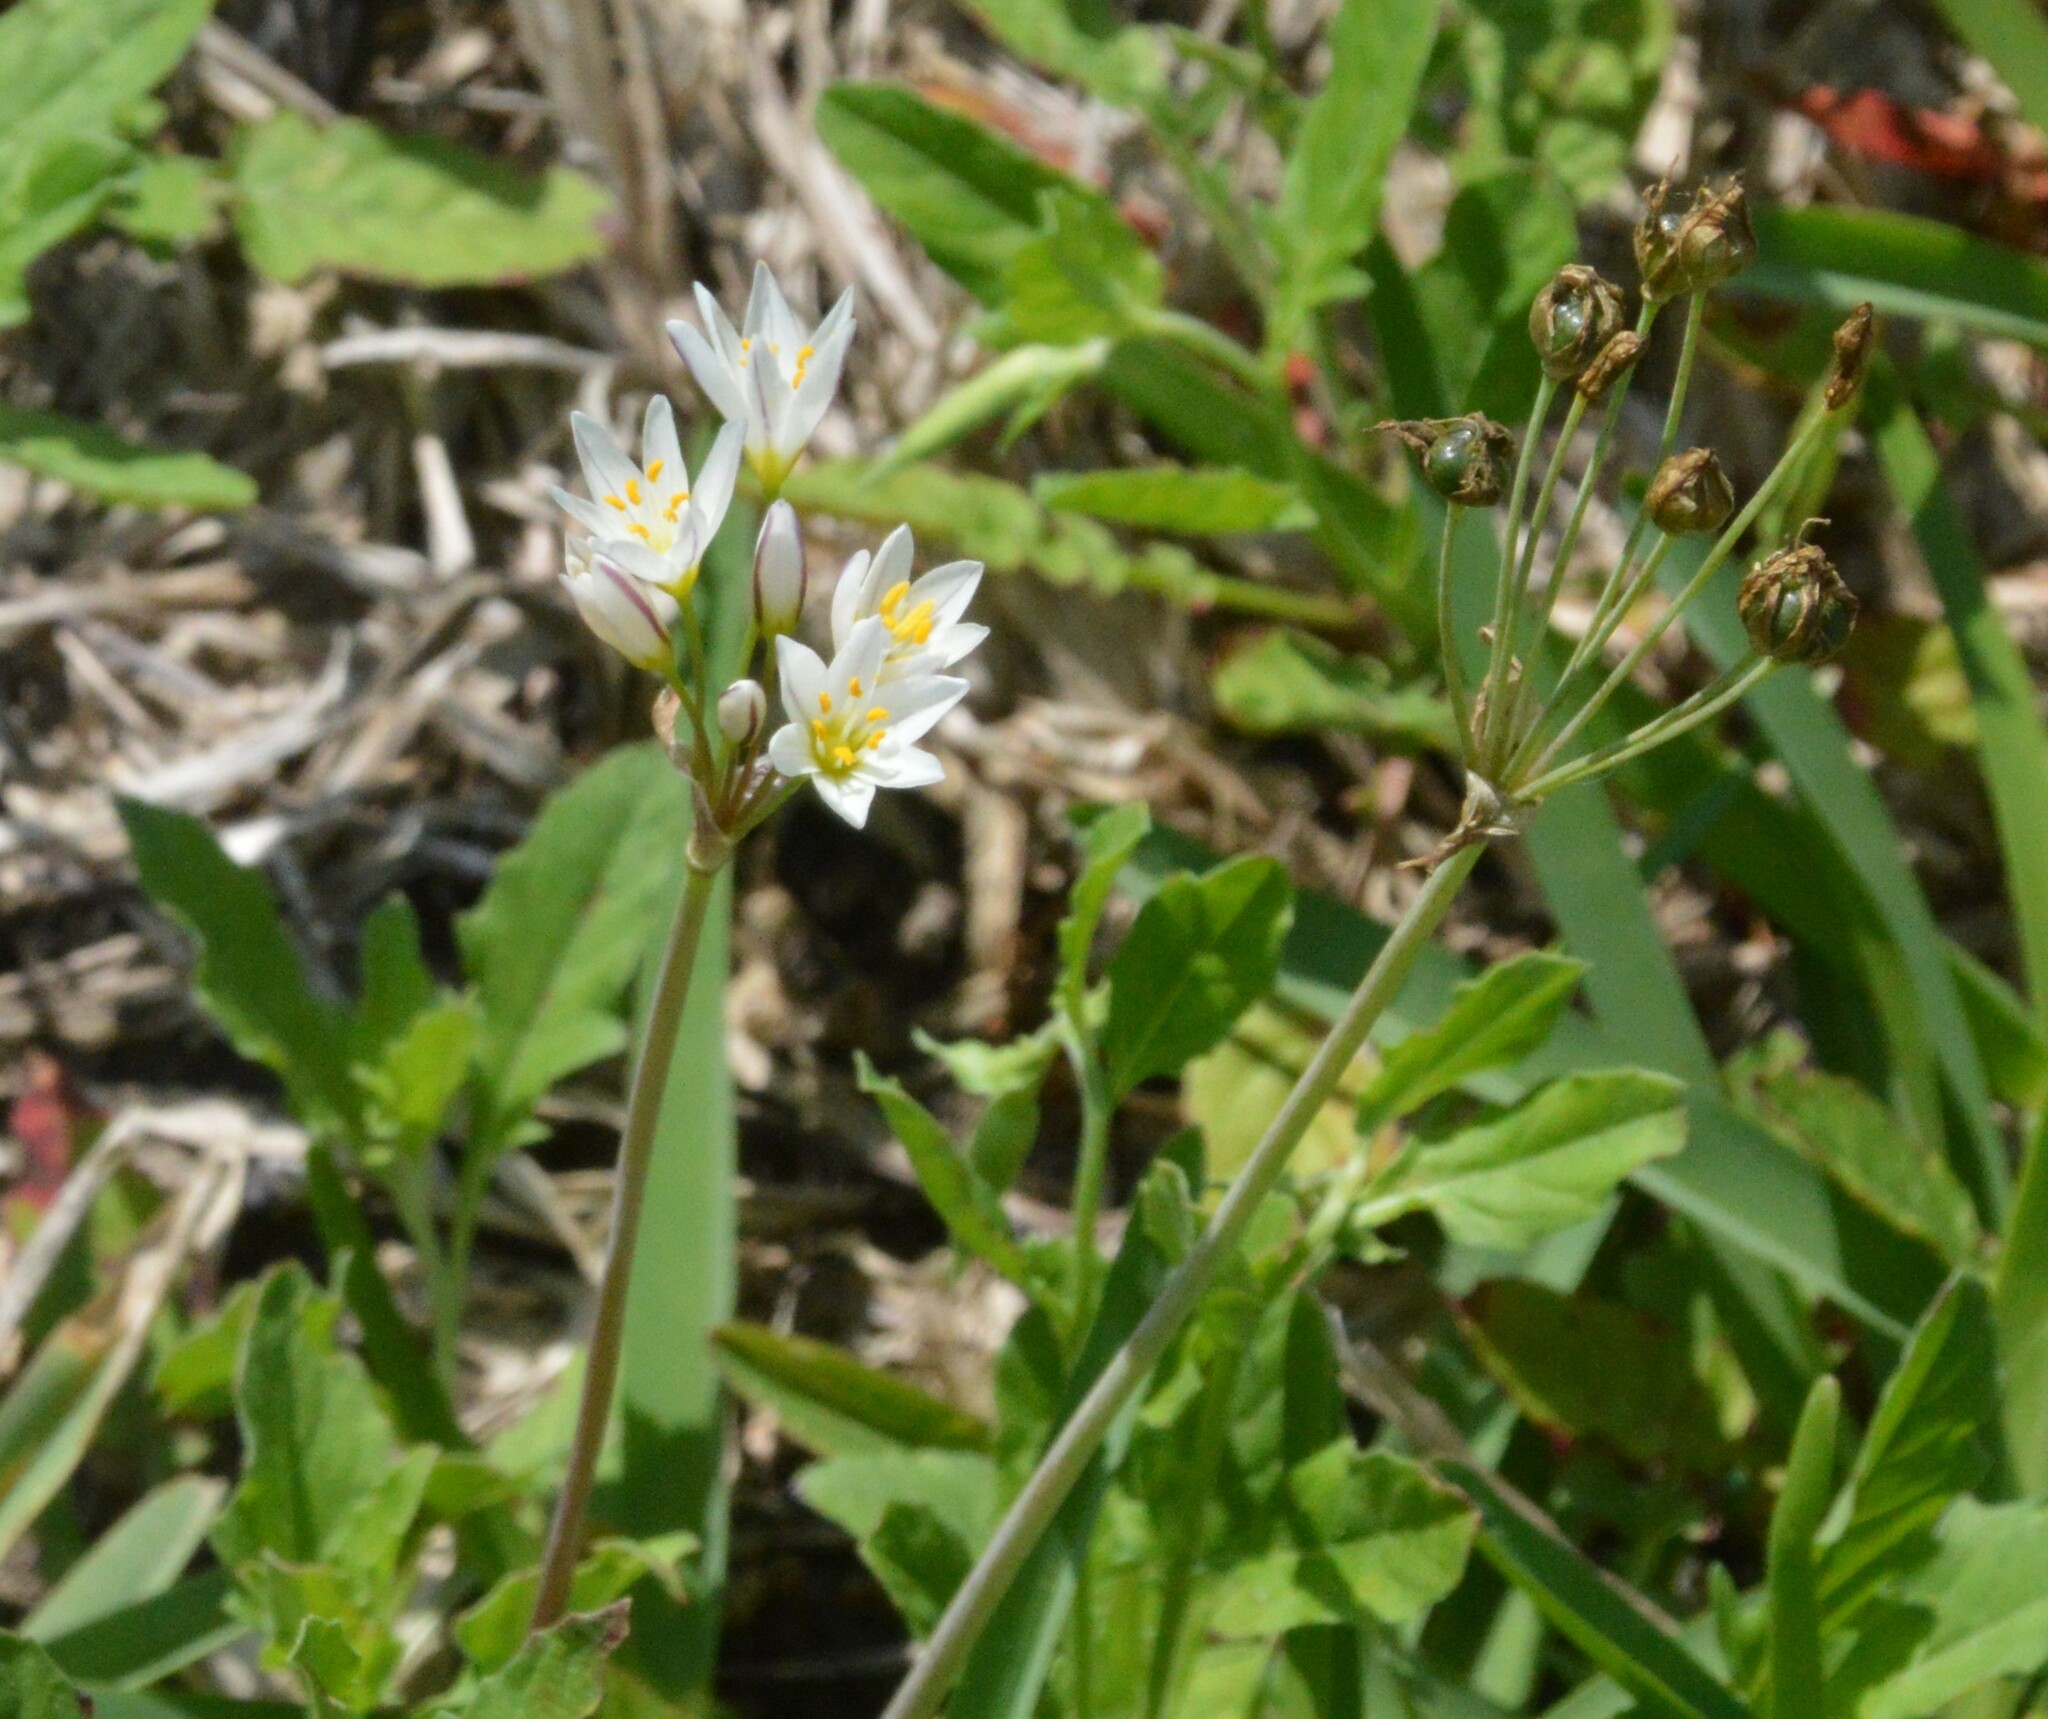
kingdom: Plantae
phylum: Tracheophyta
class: Liliopsida
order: Asparagales
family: Amaryllidaceae
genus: Nothoscordum
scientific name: Nothoscordum bivalve
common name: Crow-poison
